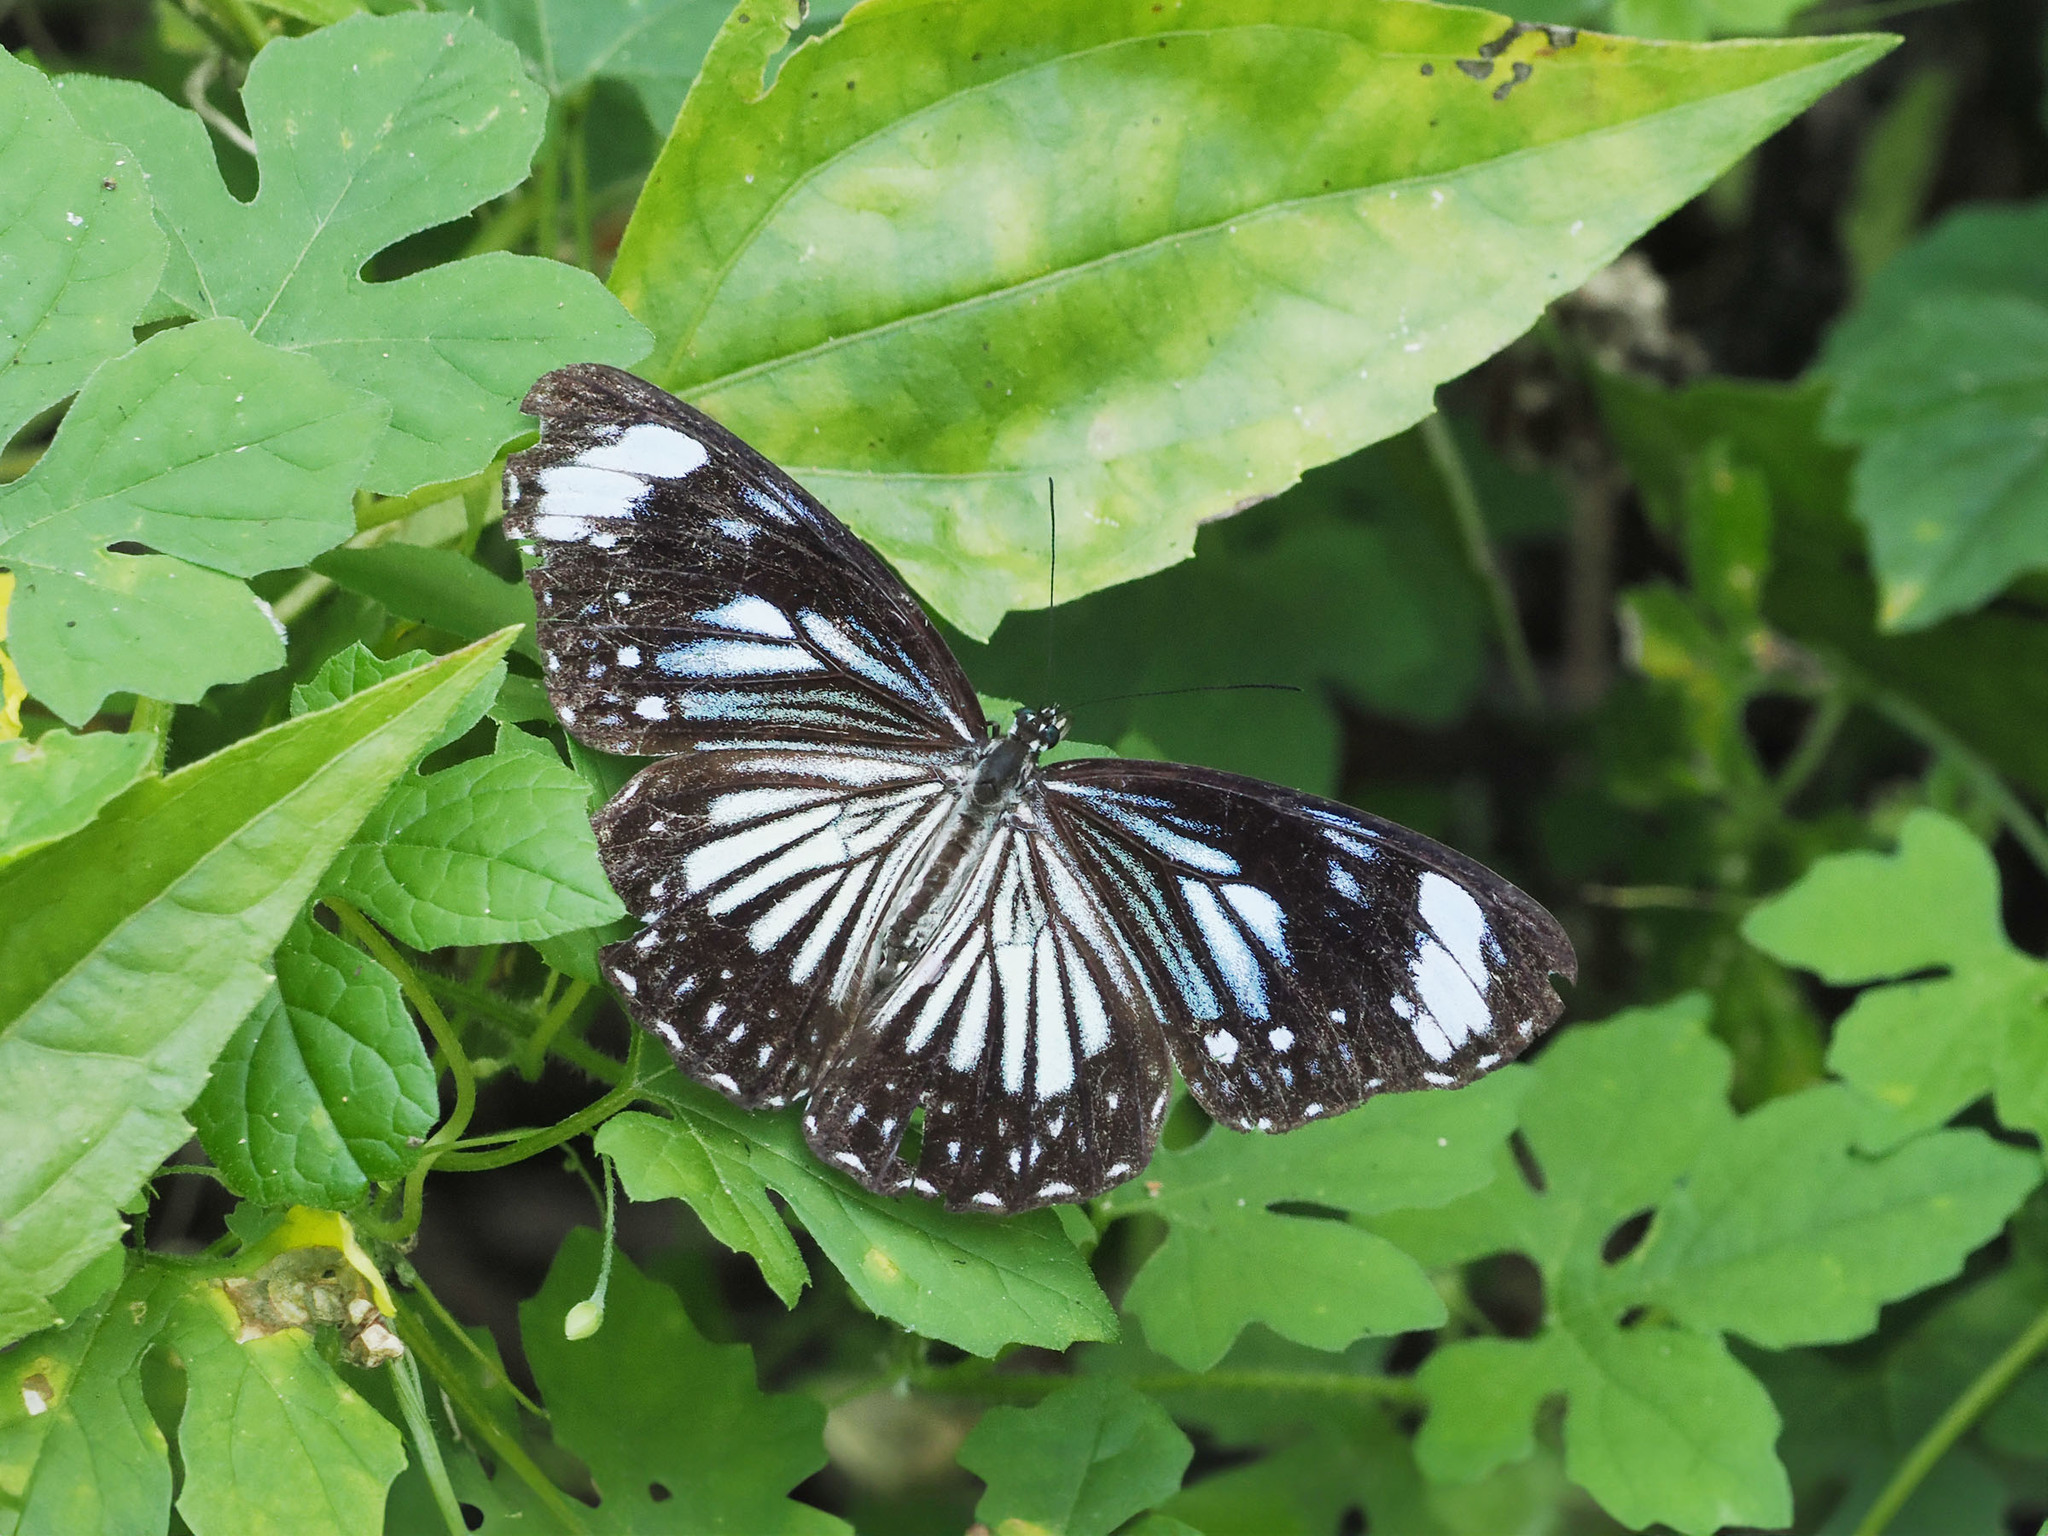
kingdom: Animalia
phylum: Arthropoda
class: Insecta
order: Lepidoptera
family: Nymphalidae
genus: Zethera
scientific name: Zethera pimplea
